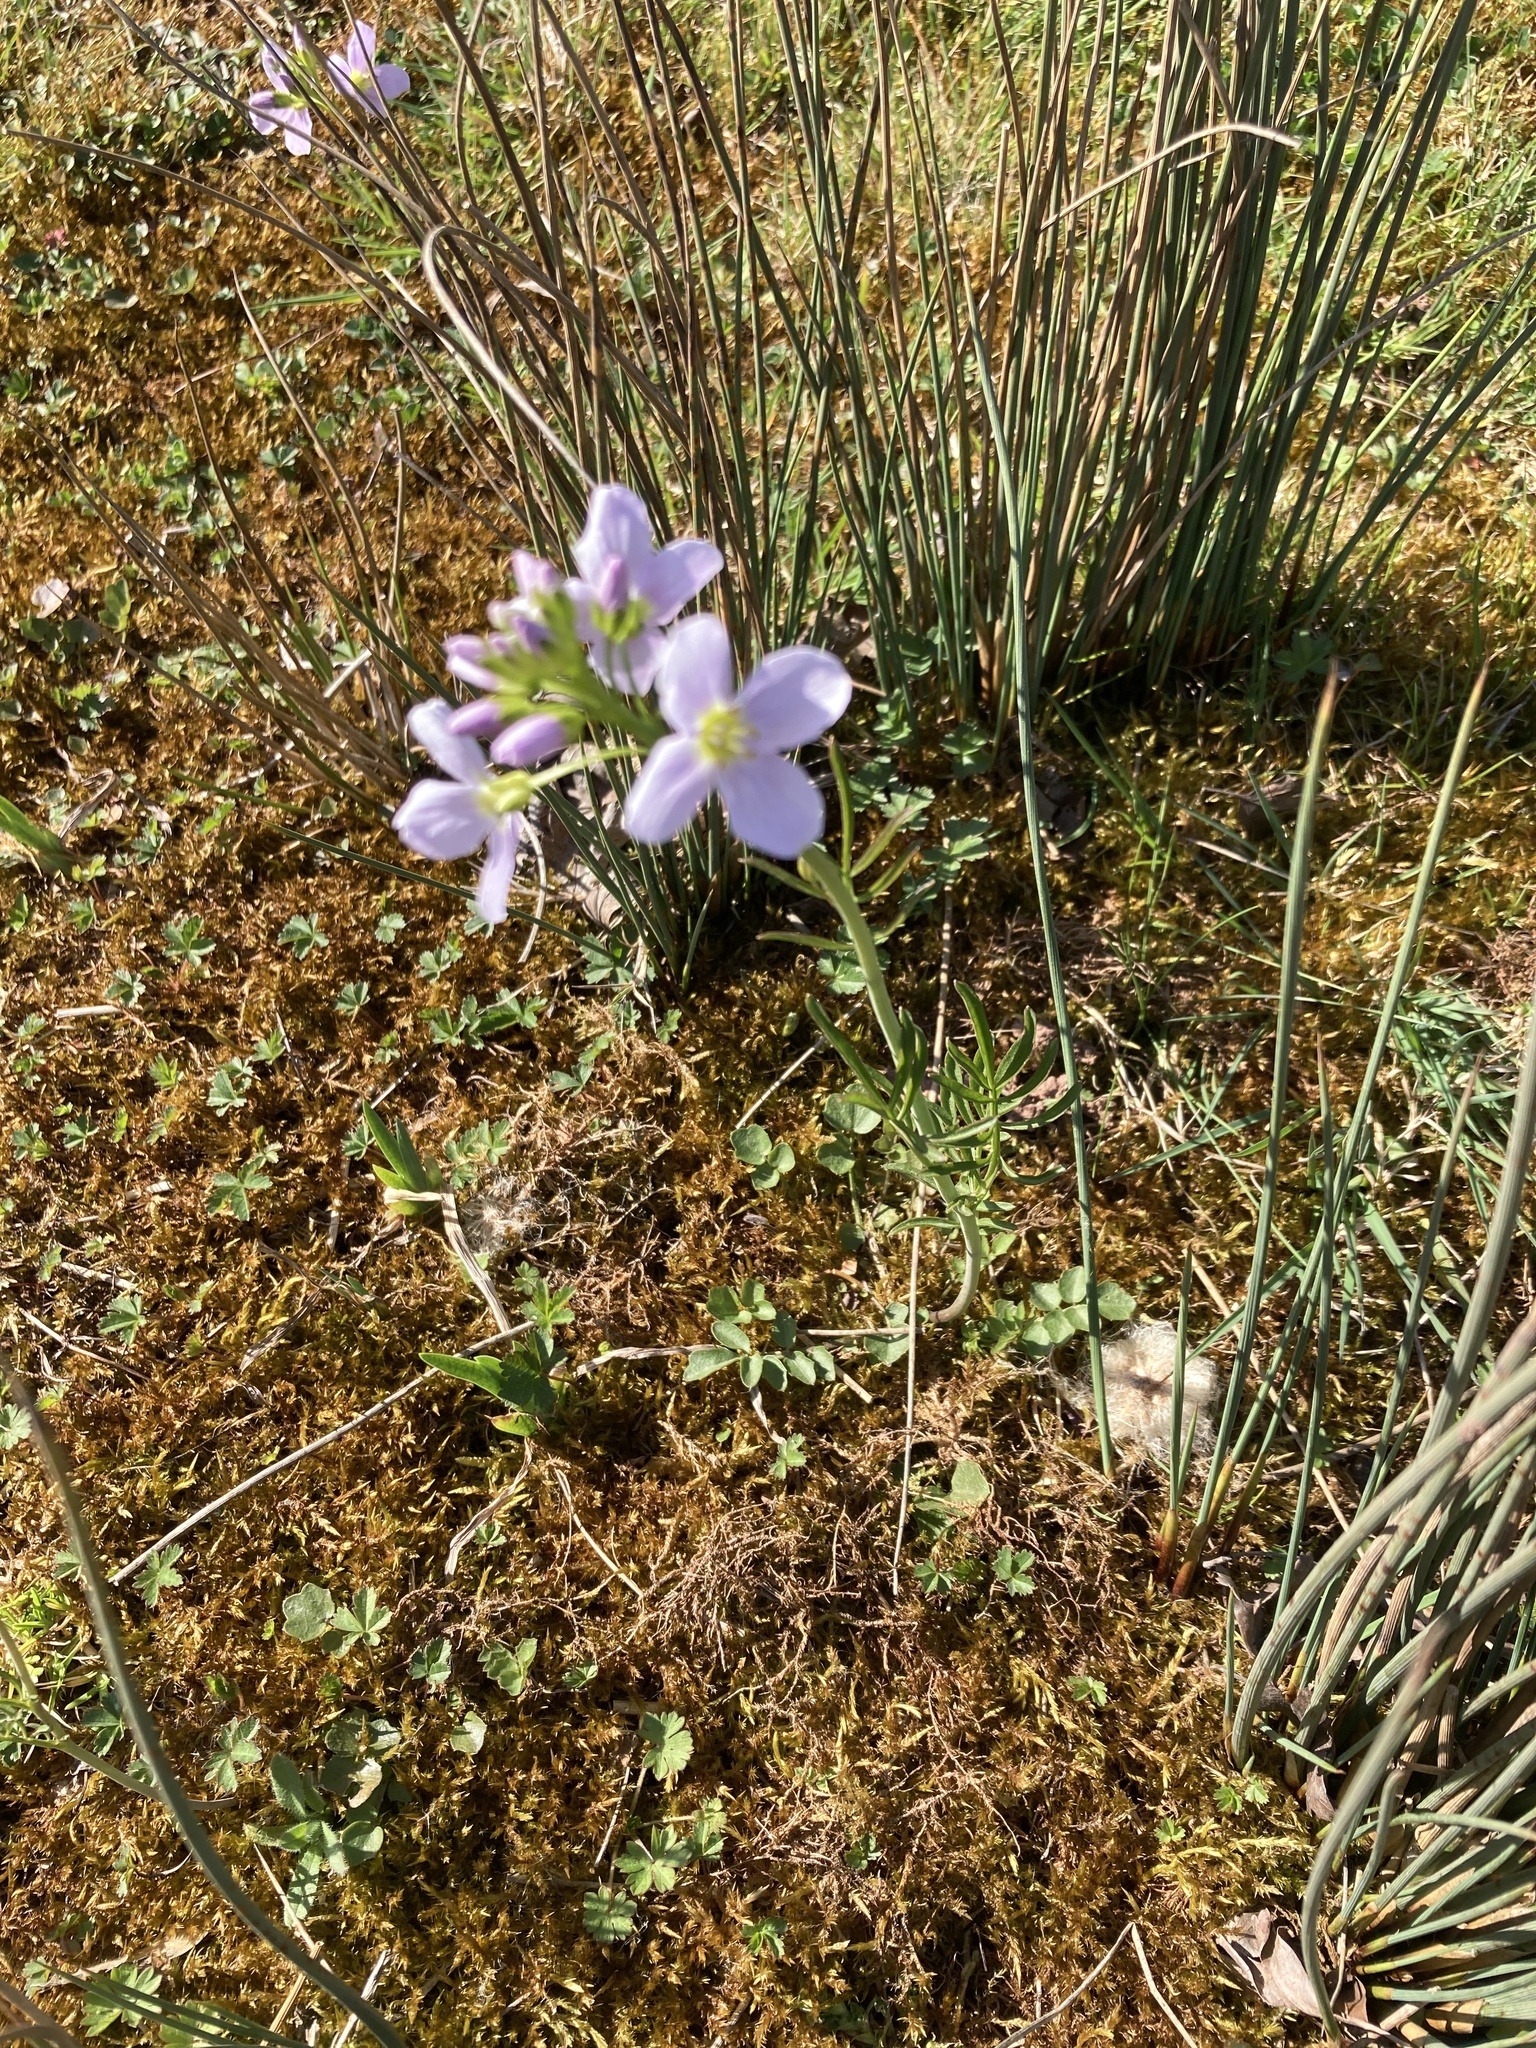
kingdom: Plantae
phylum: Tracheophyta
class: Magnoliopsida
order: Brassicales
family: Brassicaceae
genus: Cardamine
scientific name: Cardamine pratensis
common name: Cuckoo flower
